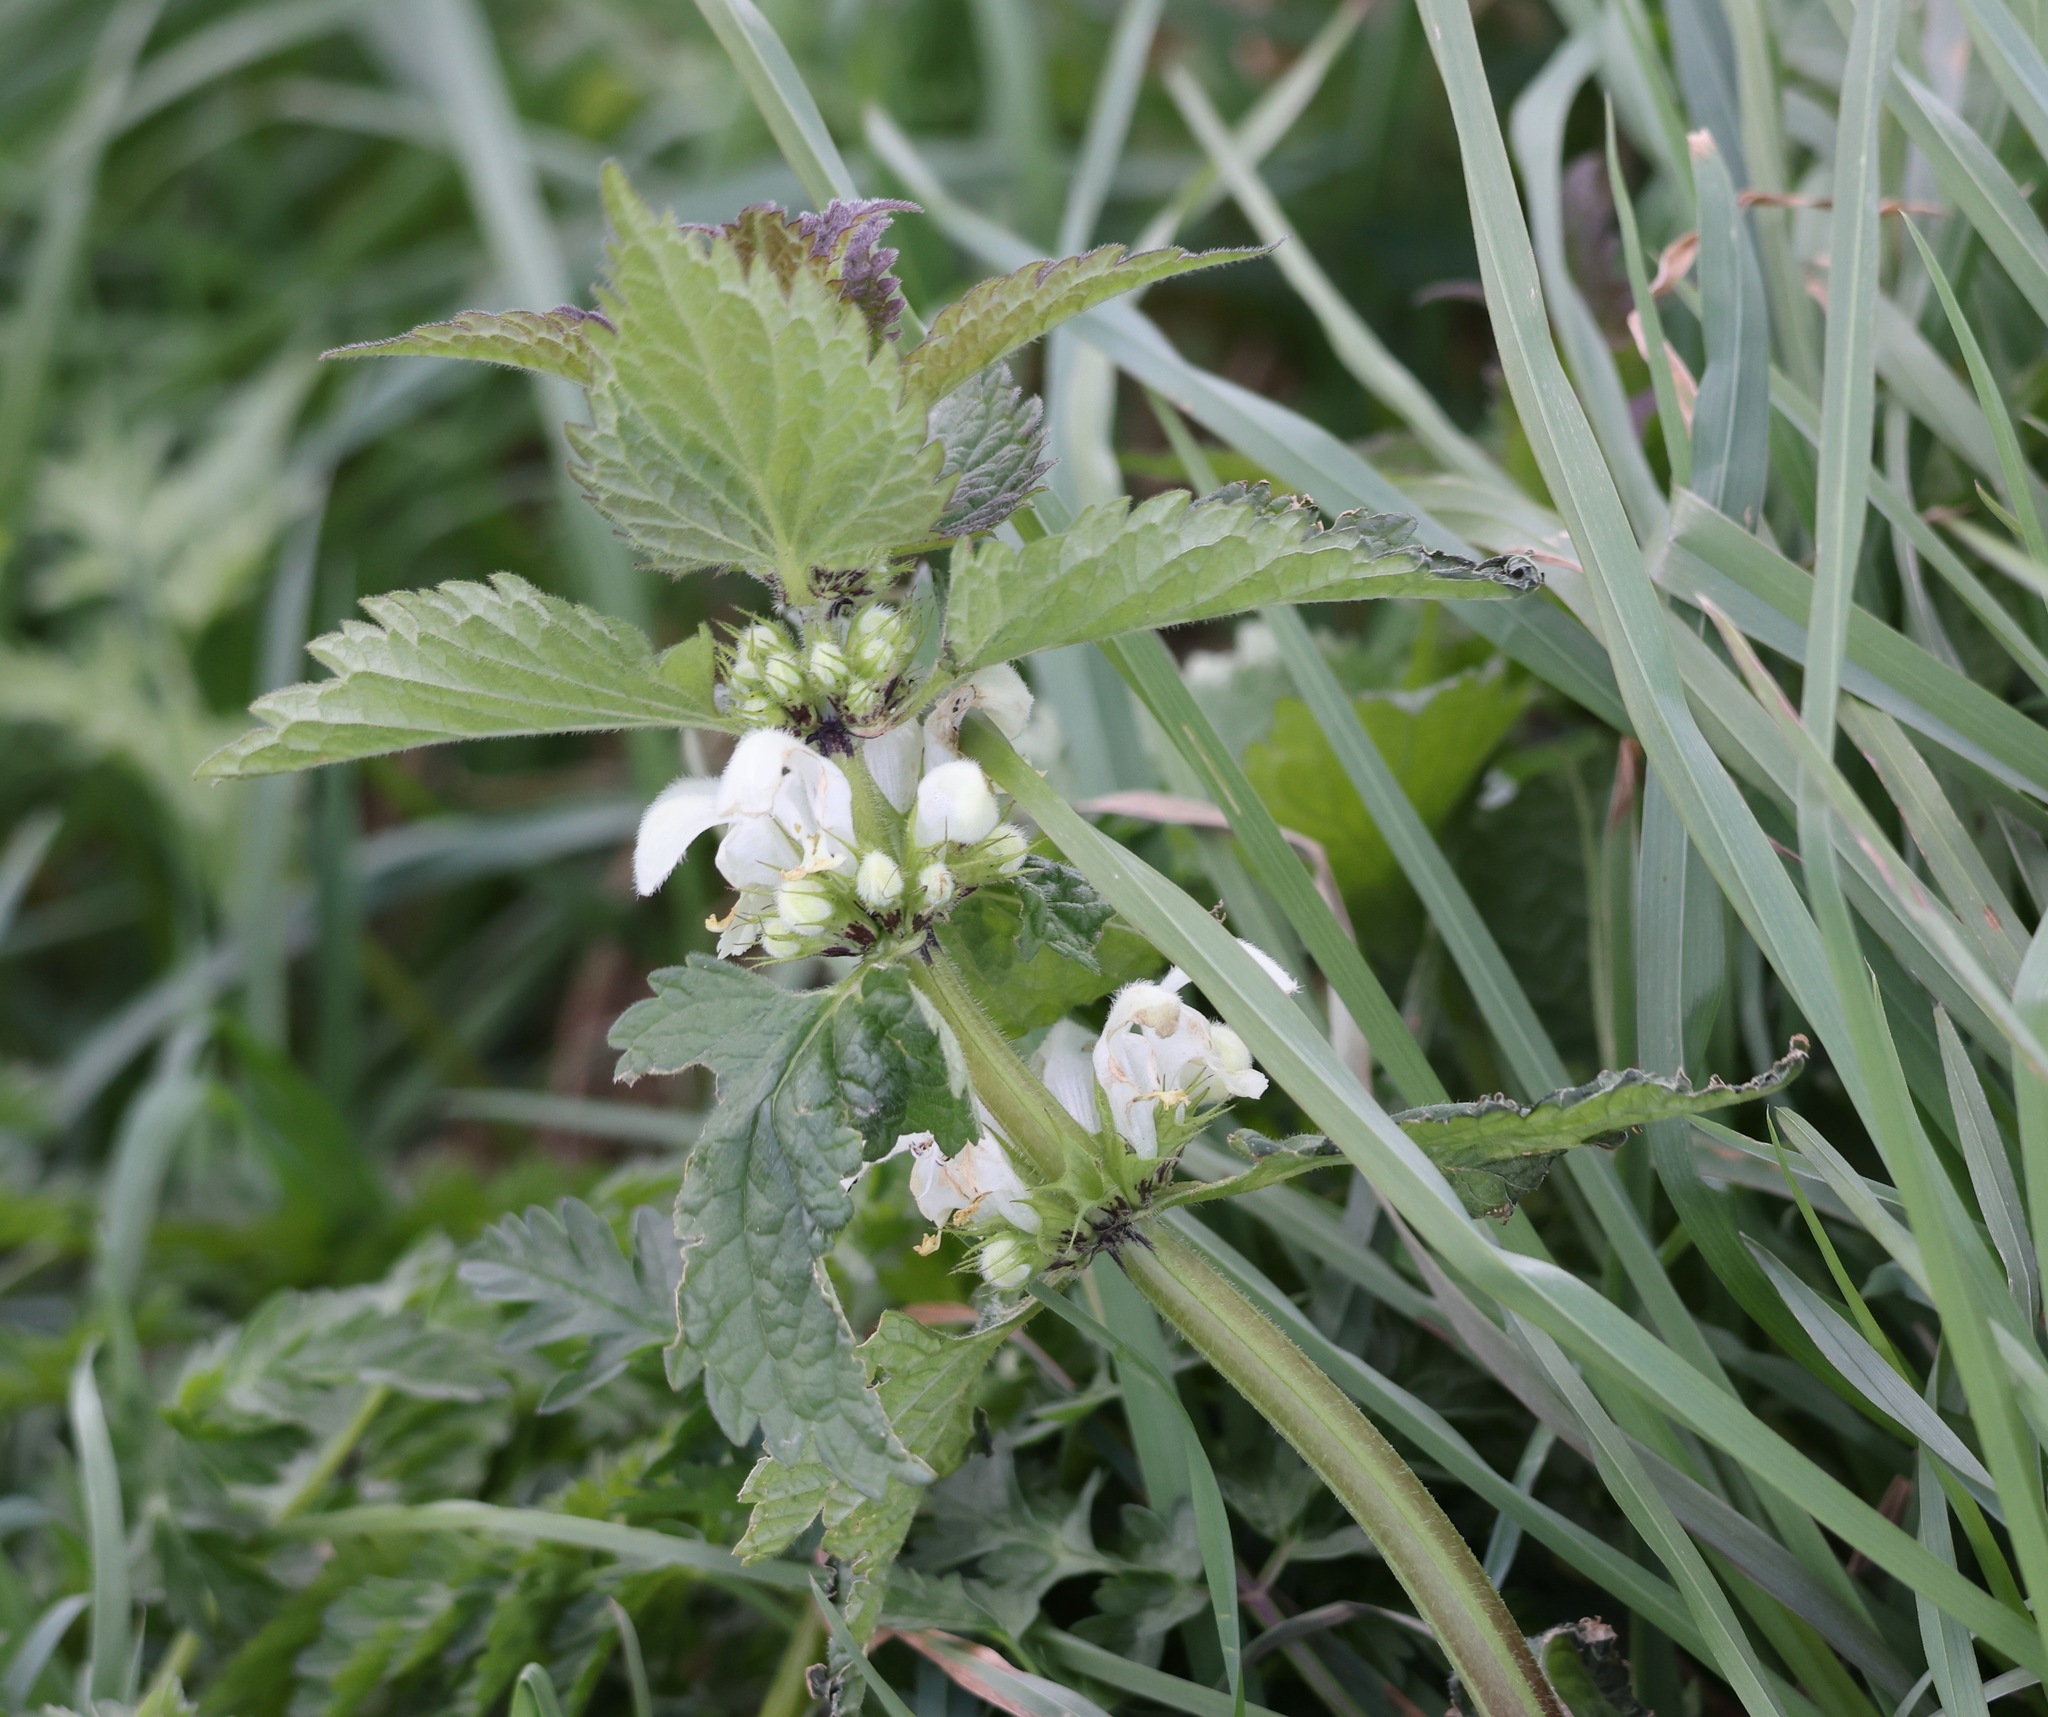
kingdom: Plantae
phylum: Tracheophyta
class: Magnoliopsida
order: Lamiales
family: Lamiaceae
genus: Lamium
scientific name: Lamium album
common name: White dead-nettle
